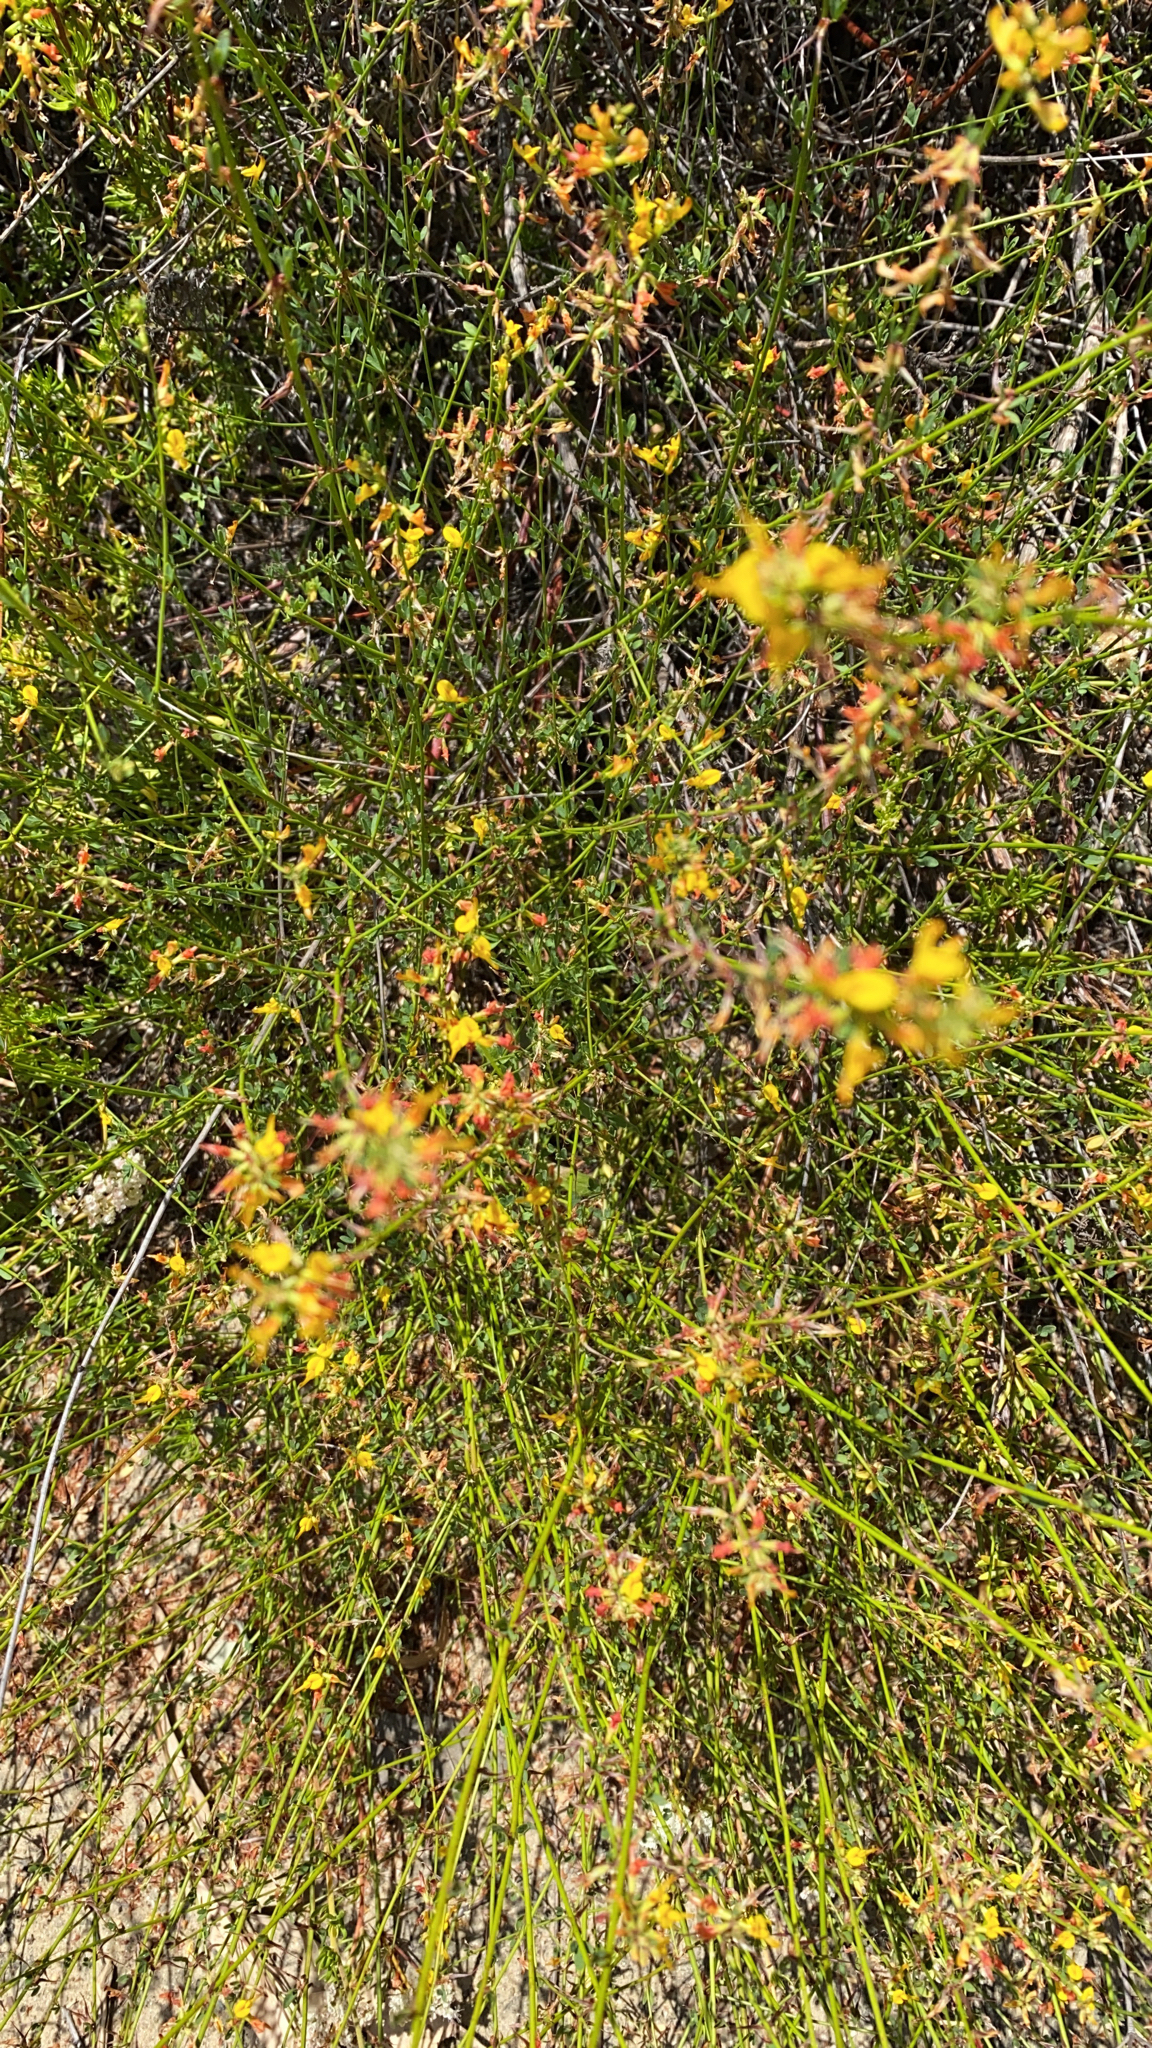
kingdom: Plantae
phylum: Tracheophyta
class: Magnoliopsida
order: Fabales
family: Fabaceae
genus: Acmispon
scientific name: Acmispon glaber
